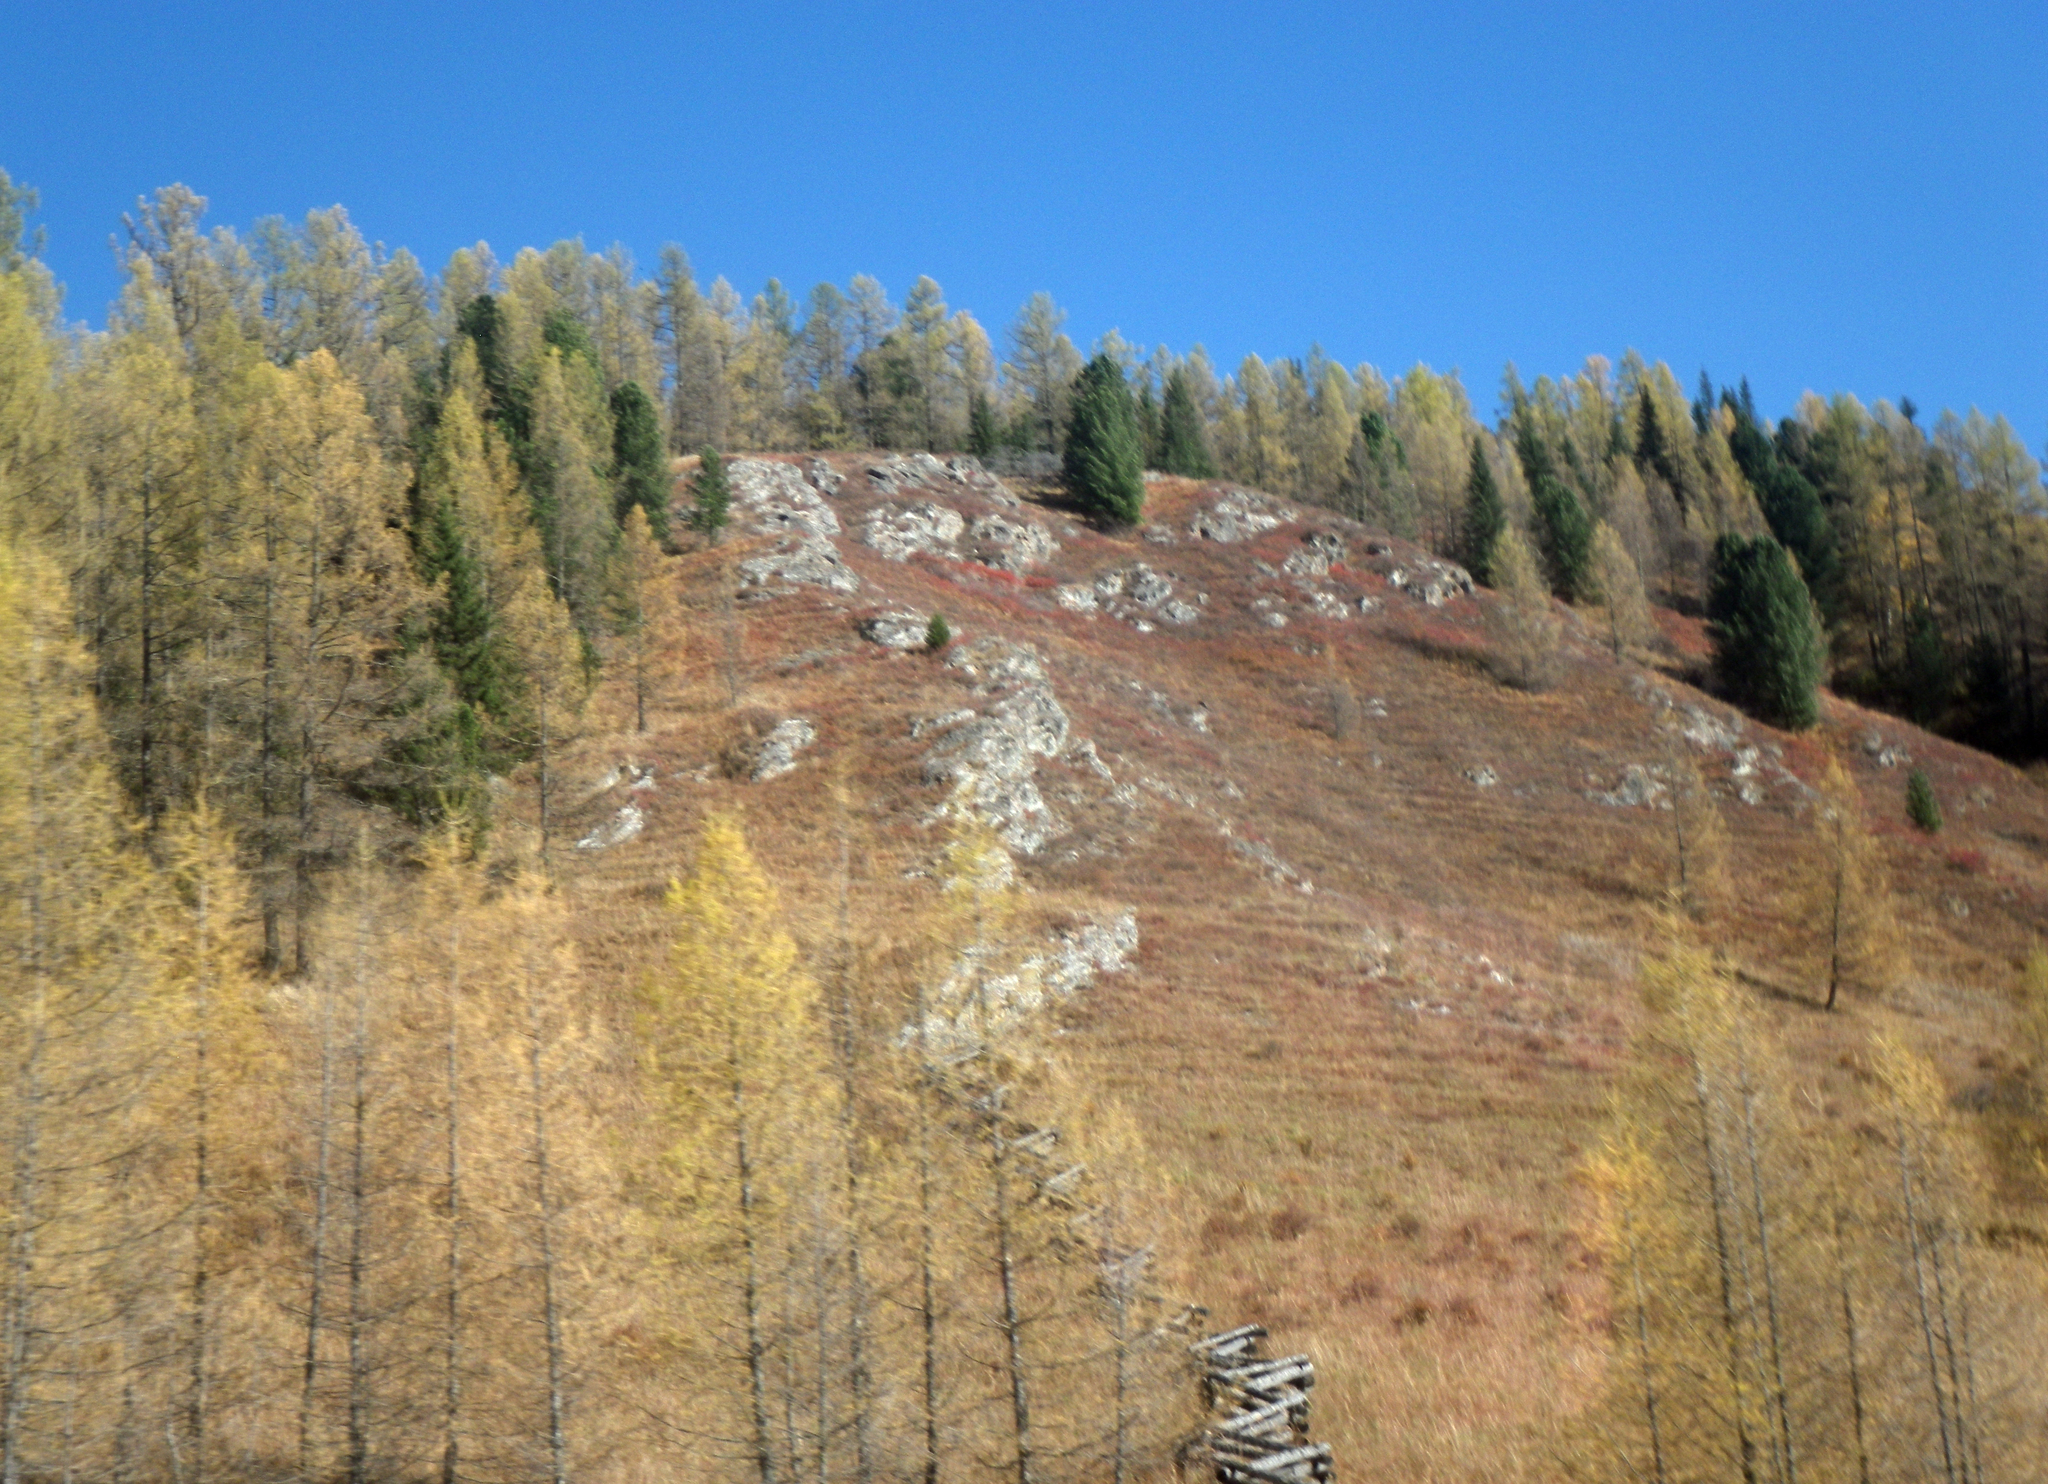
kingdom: Plantae
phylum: Tracheophyta
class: Pinopsida
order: Pinales
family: Pinaceae
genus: Larix
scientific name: Larix sibirica
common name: Siberian larch
